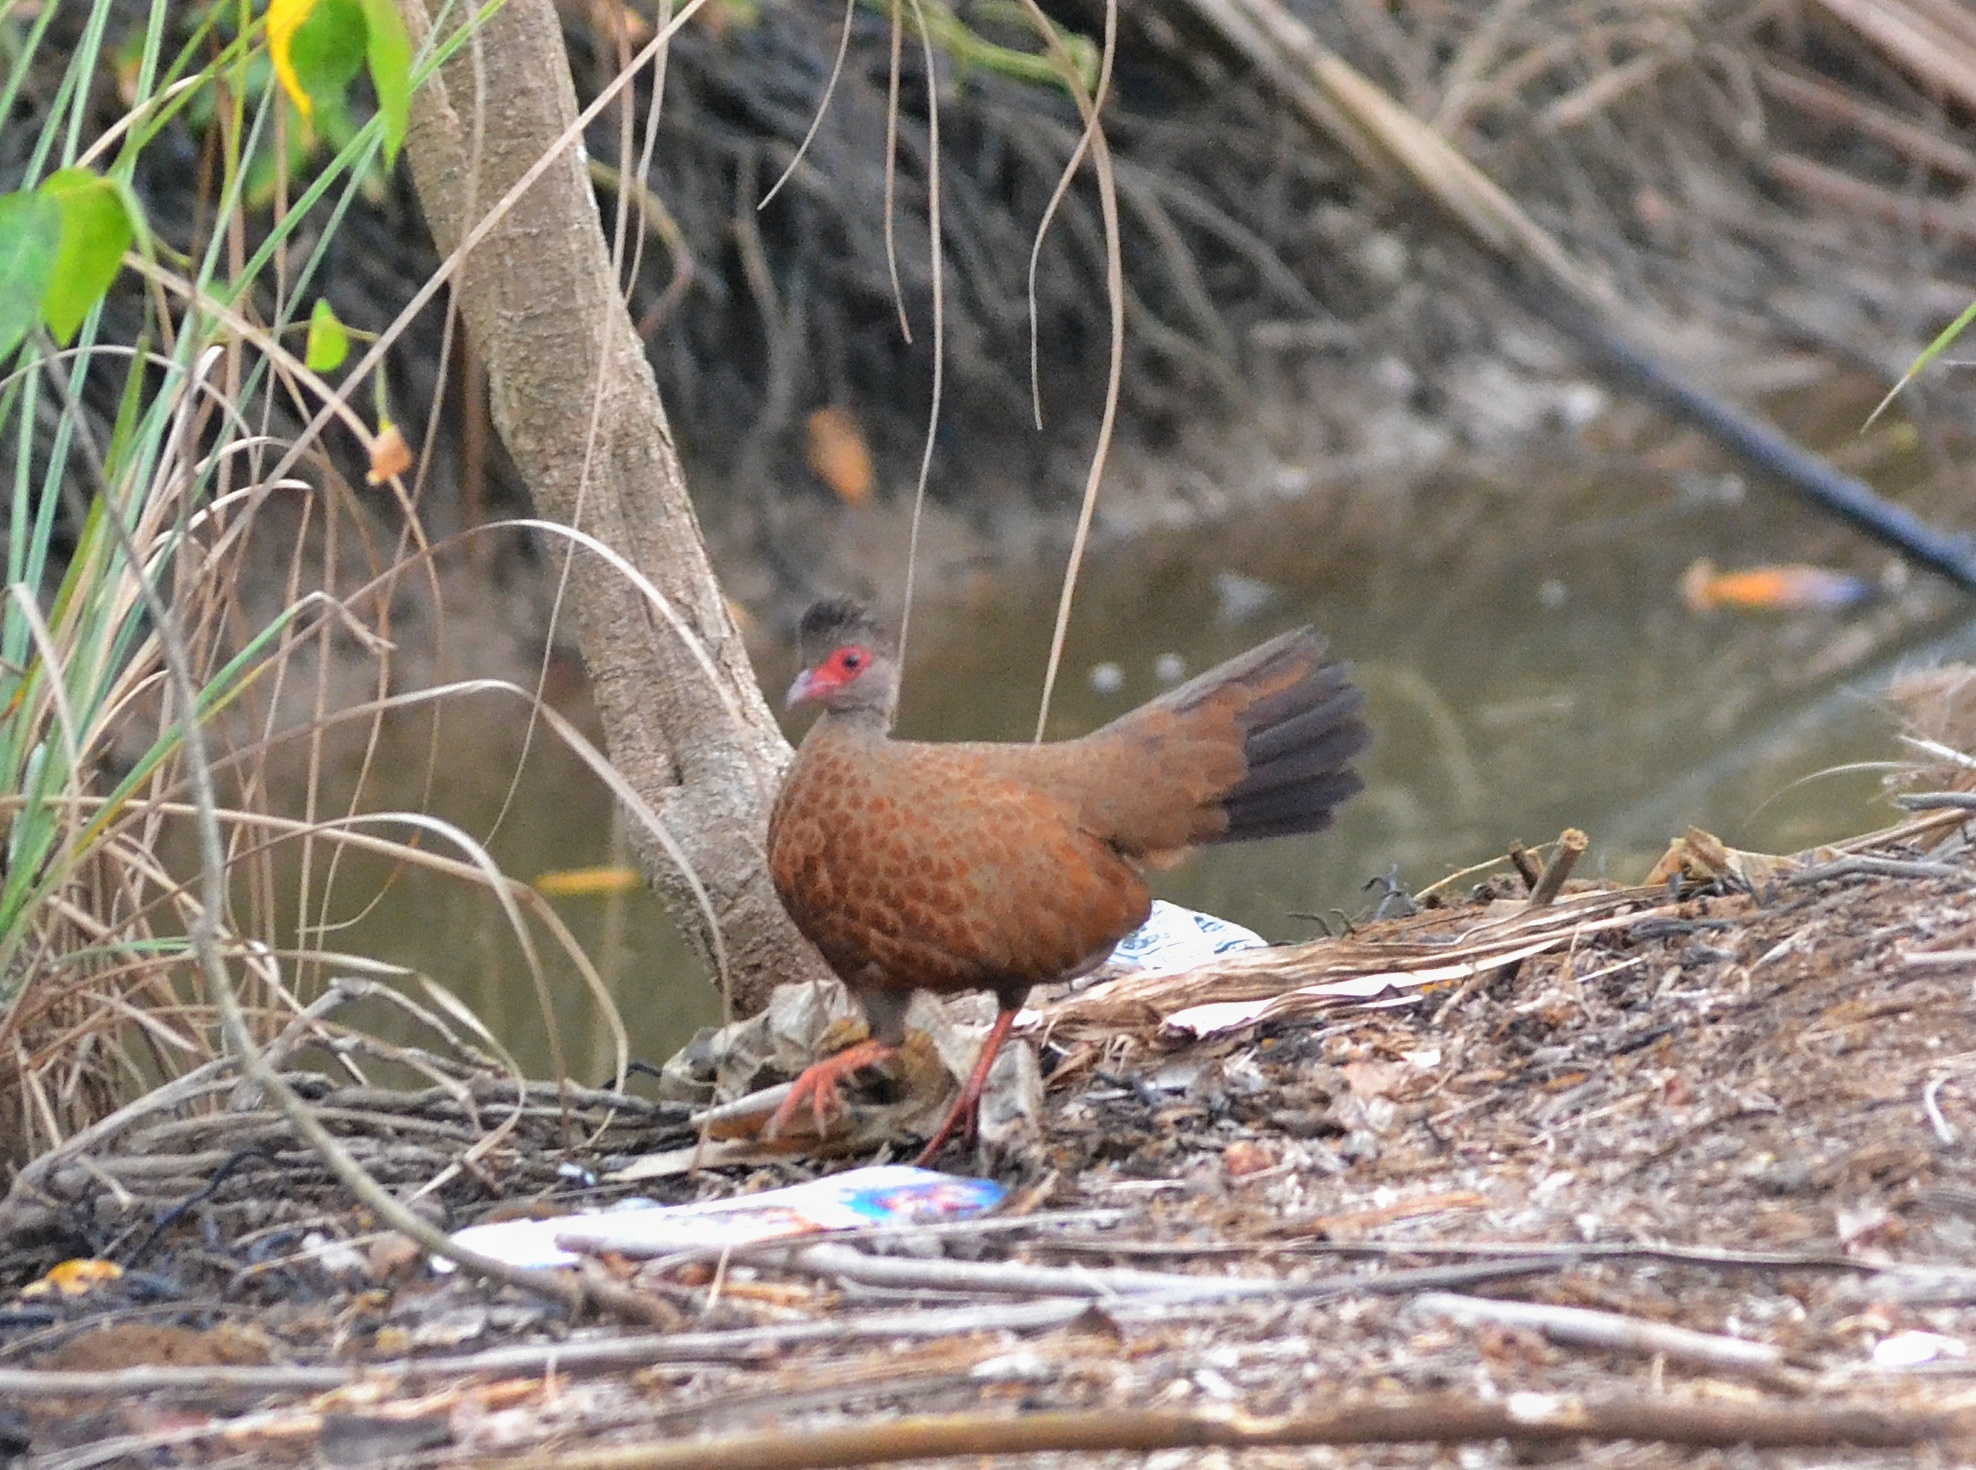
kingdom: Animalia
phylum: Chordata
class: Aves
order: Galliformes
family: Phasianidae
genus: Galloperdix
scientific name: Galloperdix spadicea
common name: Red spurfowl
